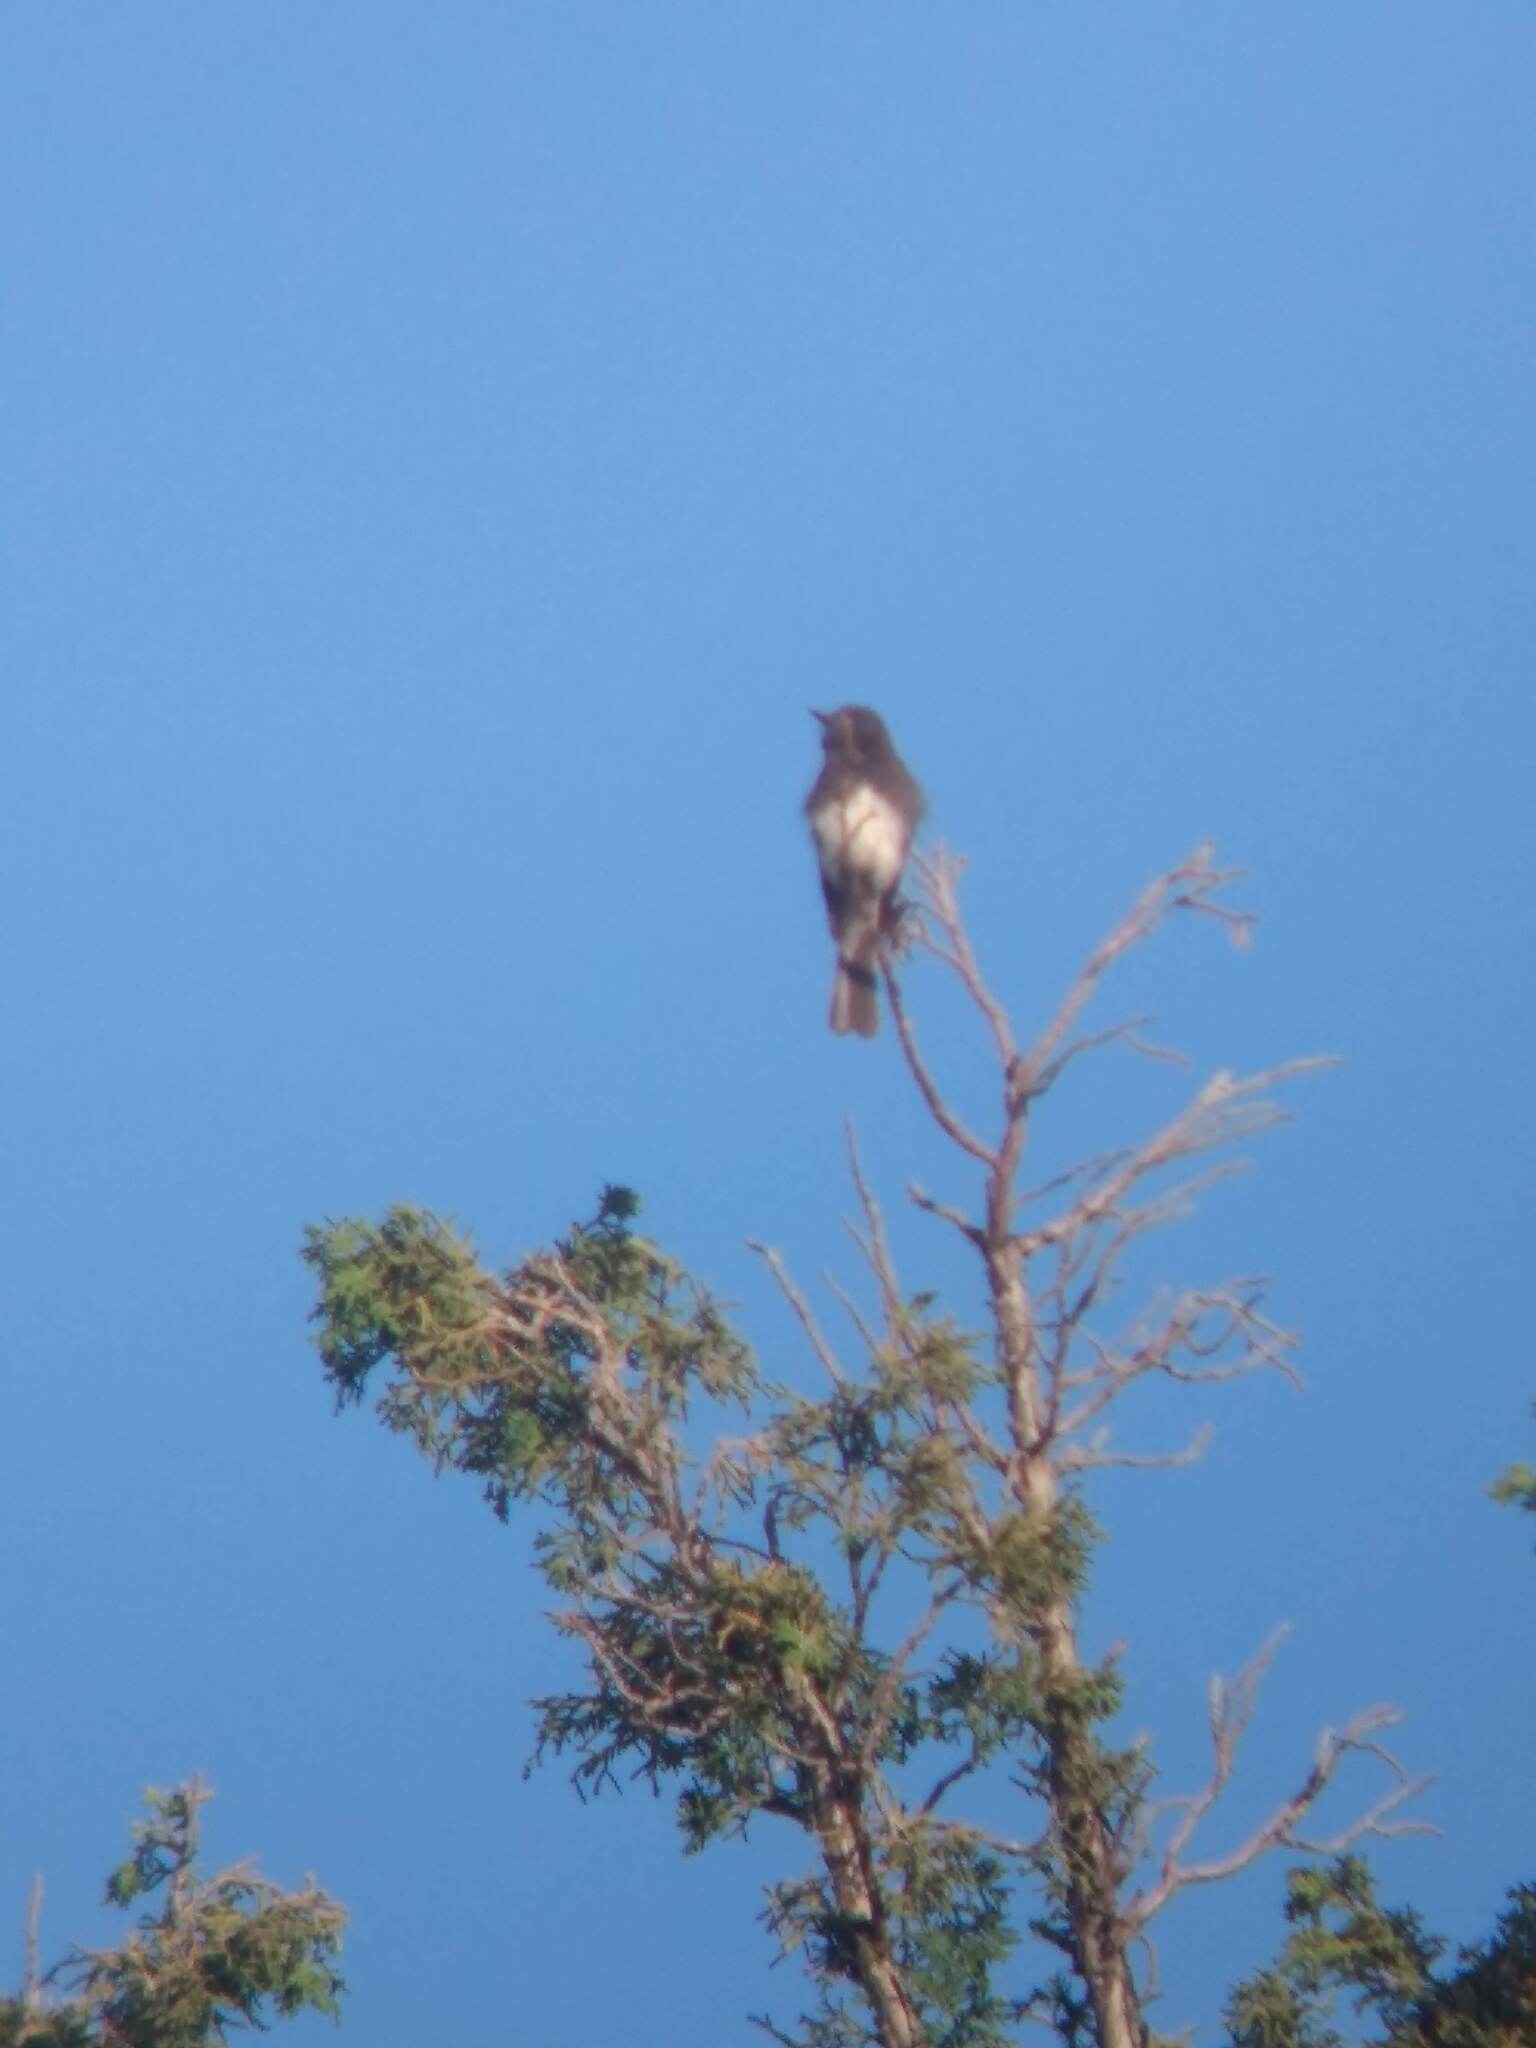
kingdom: Animalia
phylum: Chordata
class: Aves
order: Passeriformes
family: Tyrannidae
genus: Sayornis
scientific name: Sayornis nigricans
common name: Black phoebe
